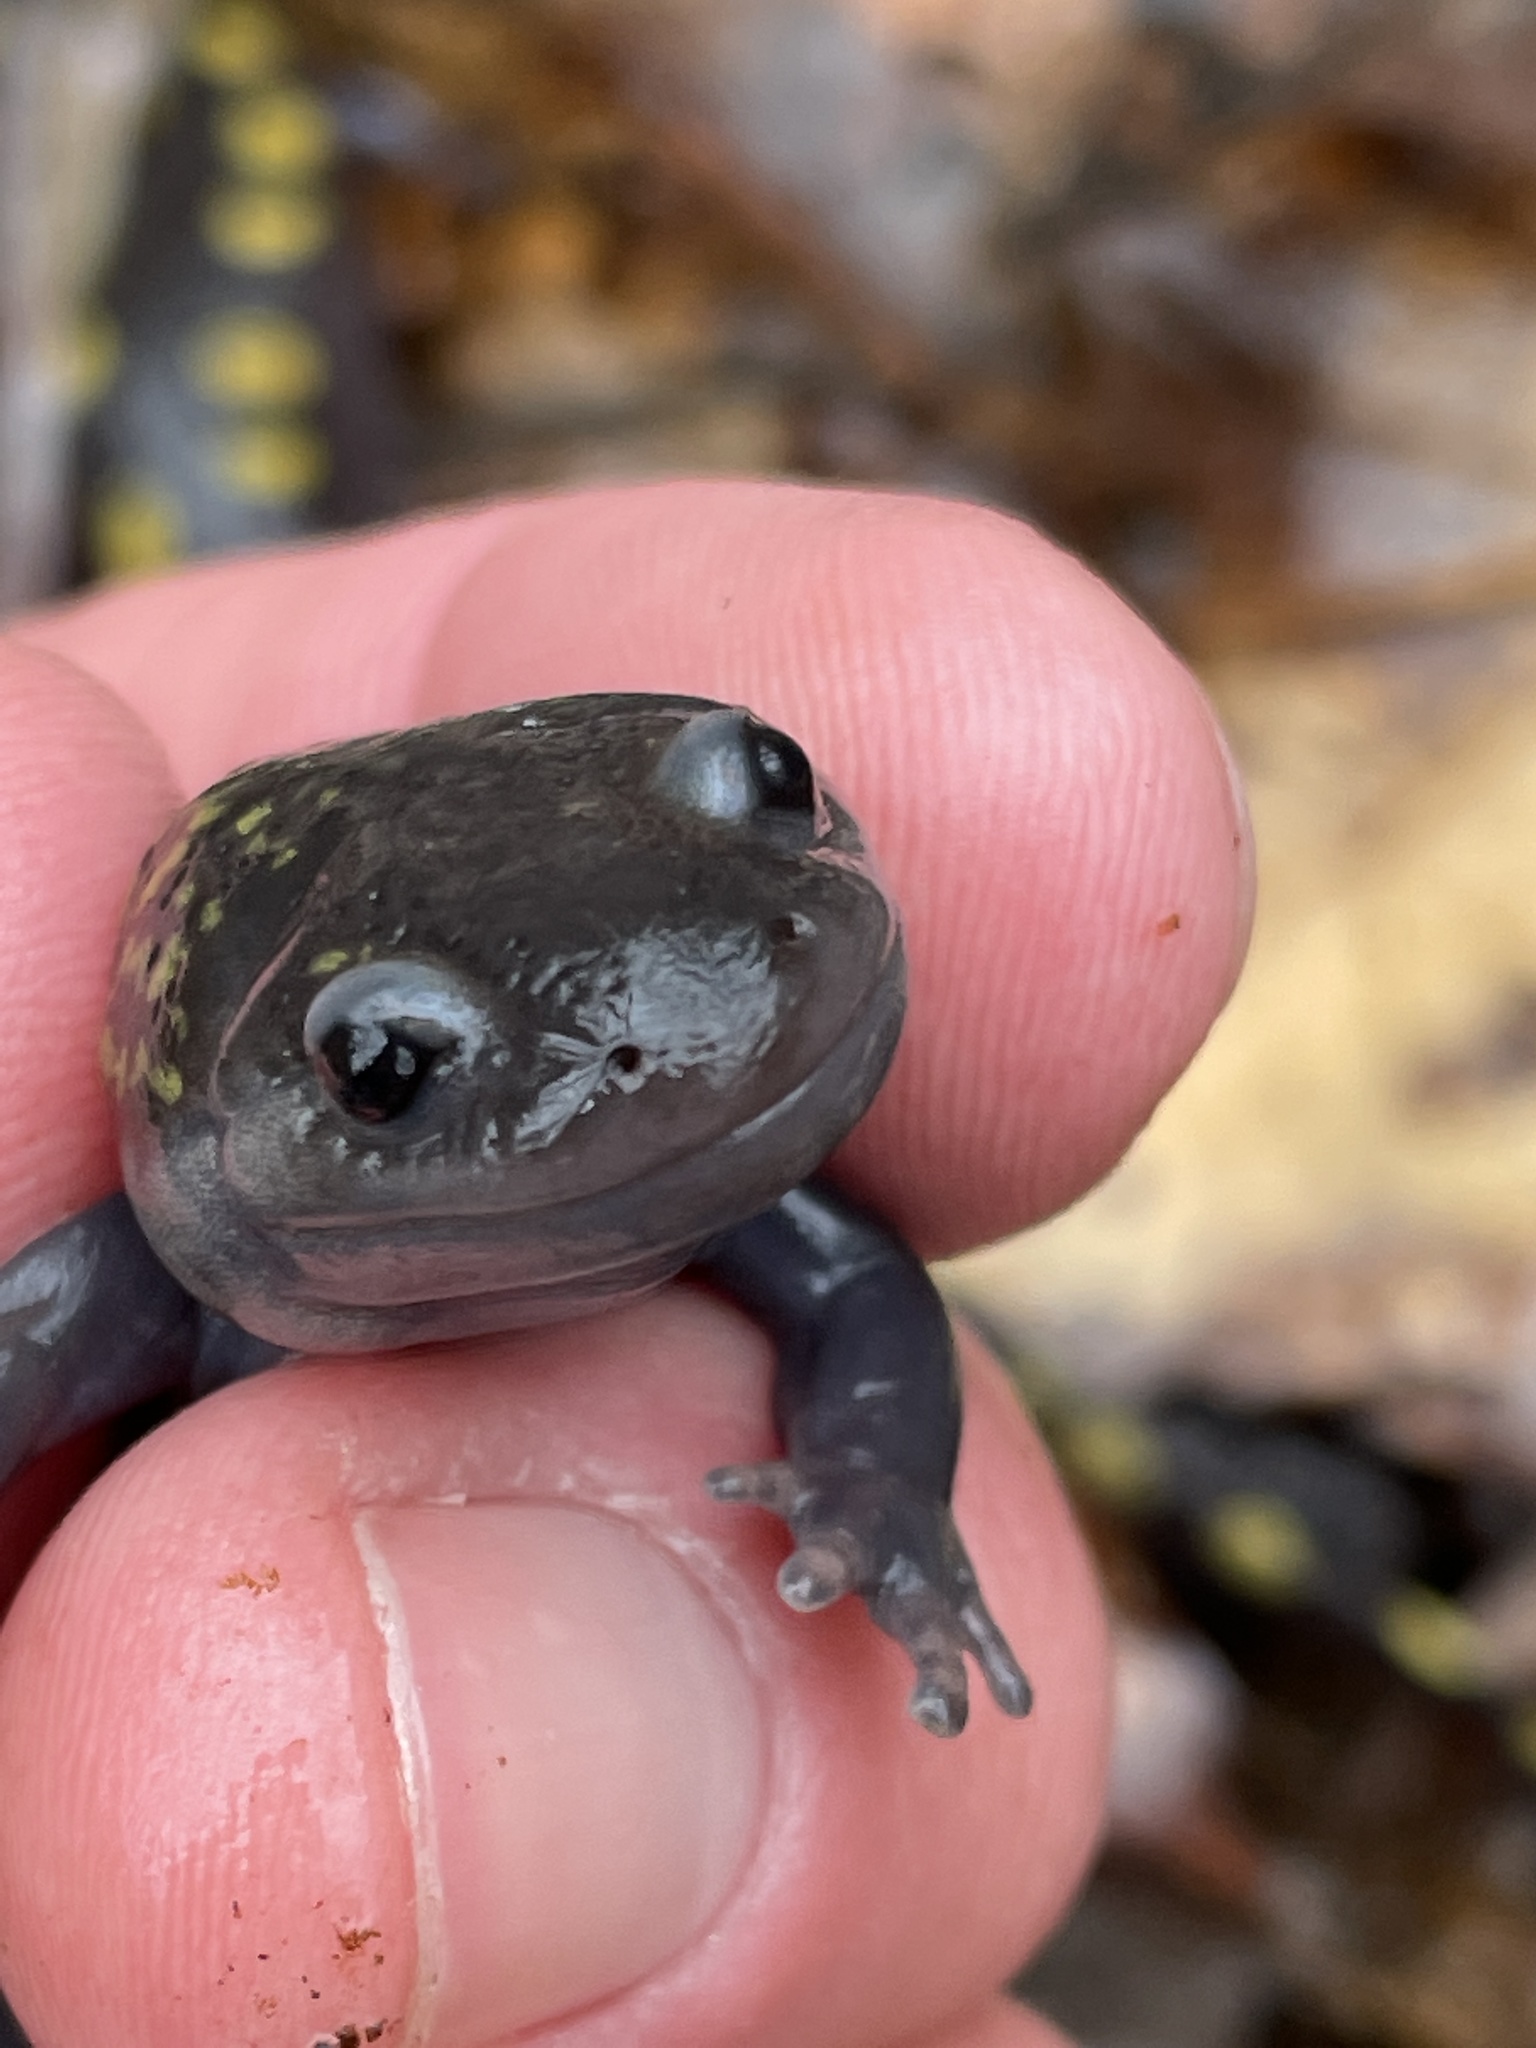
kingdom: Animalia
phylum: Chordata
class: Amphibia
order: Caudata
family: Ambystomatidae
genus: Ambystoma
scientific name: Ambystoma maculatum
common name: Spotted salamander
